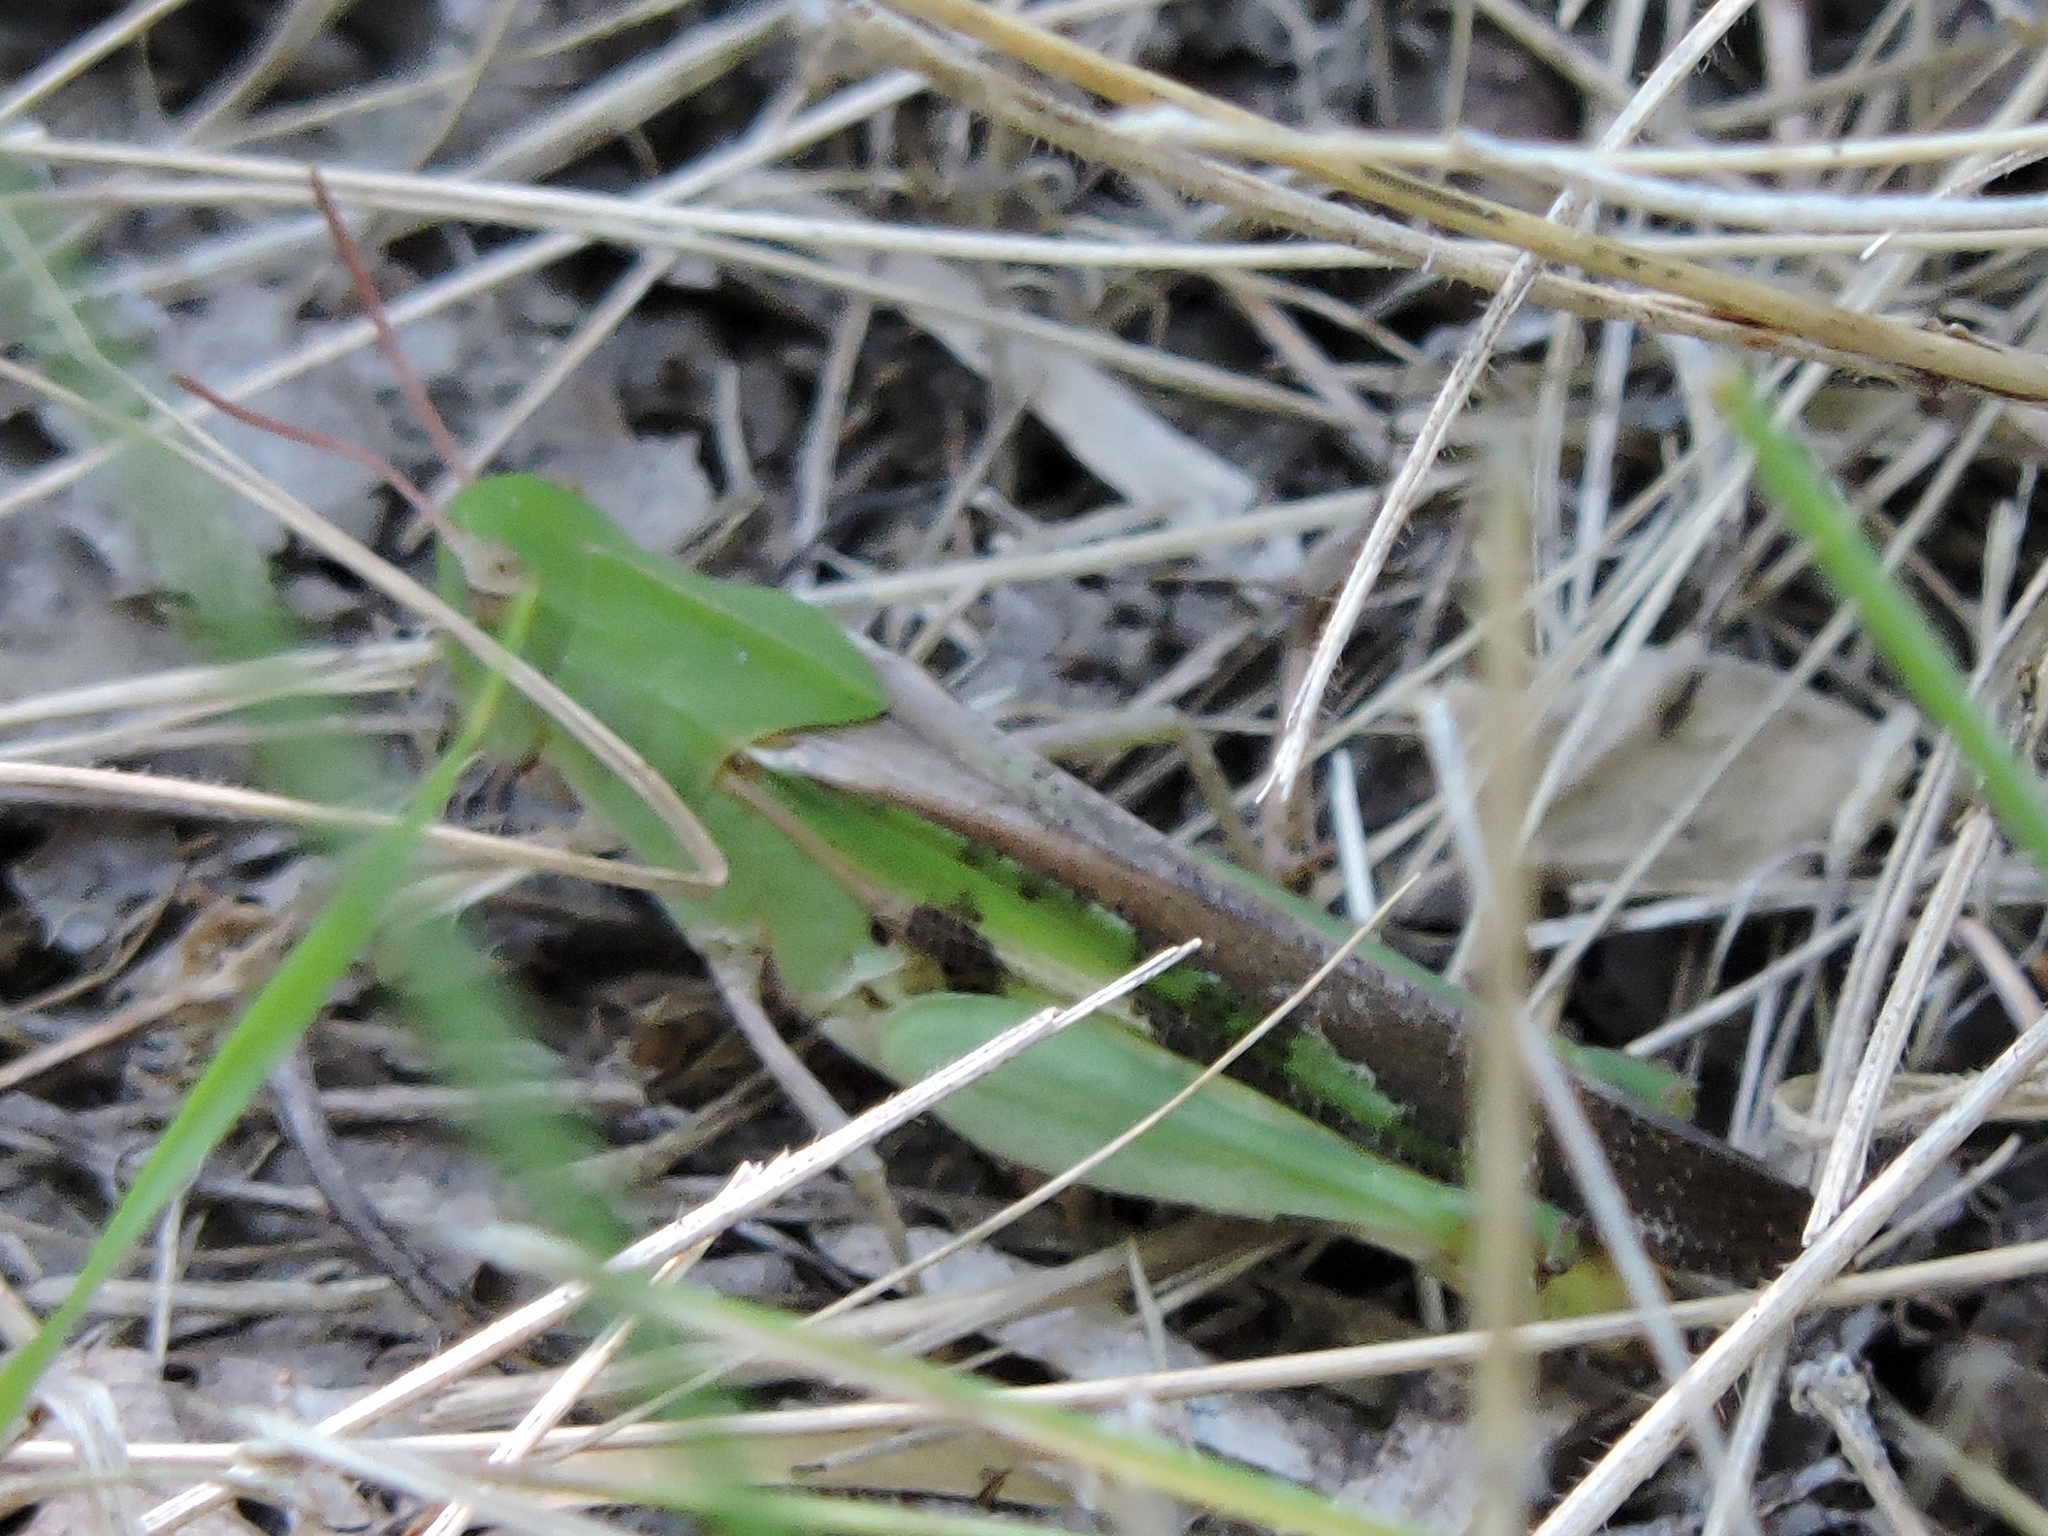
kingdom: Animalia
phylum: Arthropoda
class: Insecta
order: Orthoptera
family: Acrididae
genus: Chortophaga
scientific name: Chortophaga viridifasciata
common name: Green-striped grasshopper
